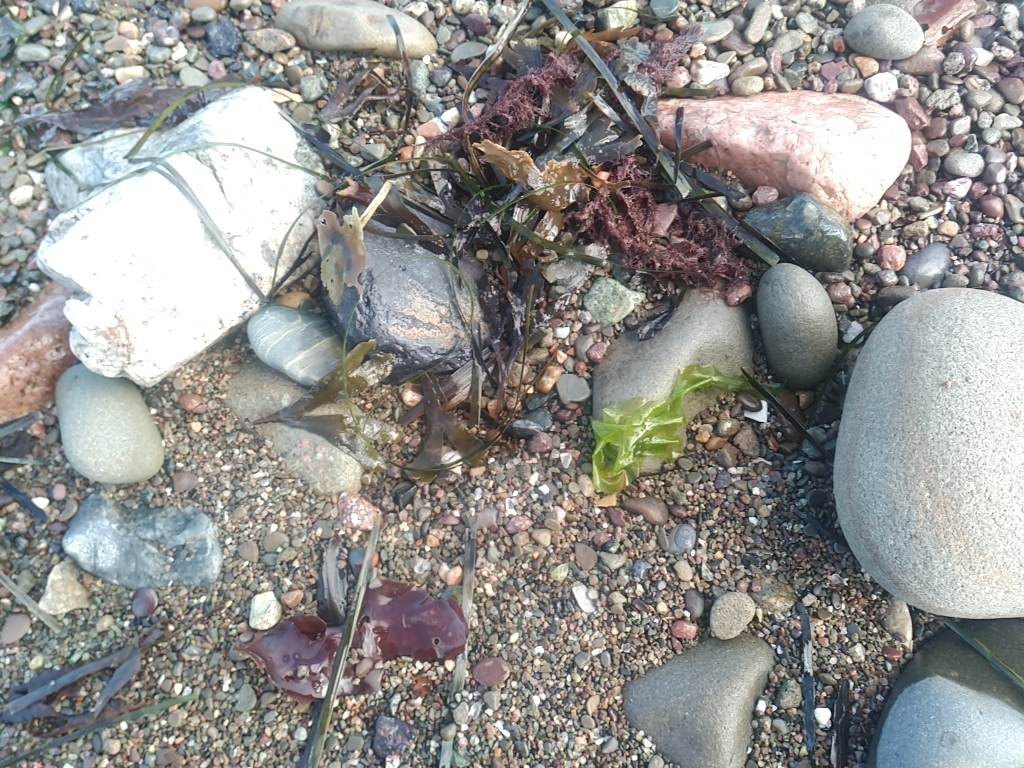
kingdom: Plantae
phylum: Chlorophyta
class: Ulvophyceae
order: Ulvales
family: Ulvaceae
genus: Ulva
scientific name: Ulva lactuca
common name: Sea lettuce
